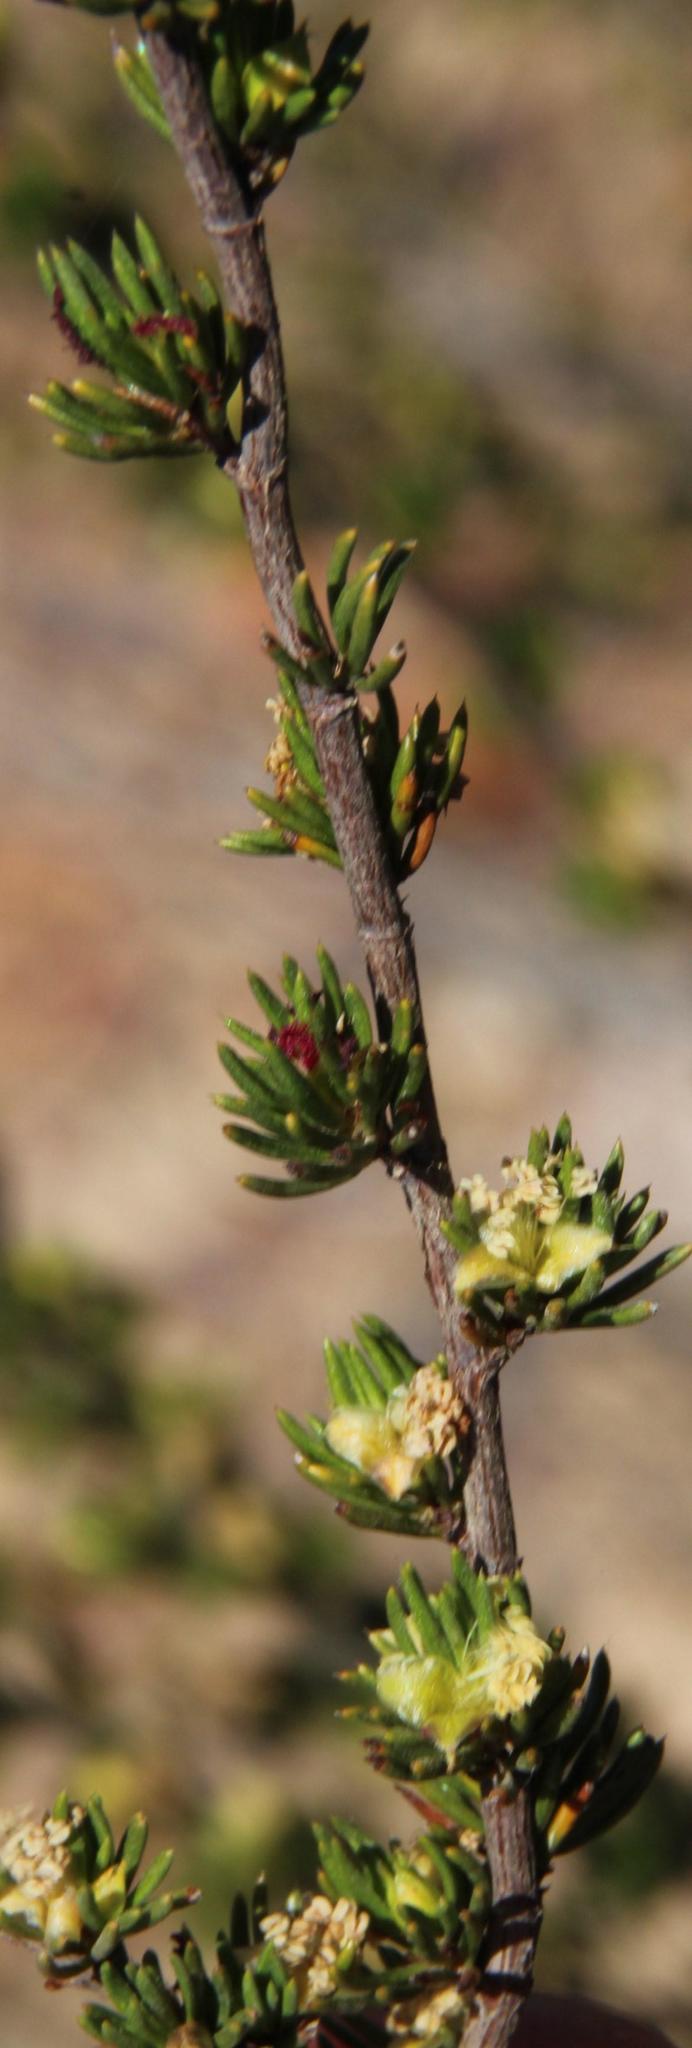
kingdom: Plantae
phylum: Tracheophyta
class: Magnoliopsida
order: Rosales
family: Rosaceae
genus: Cliffortia
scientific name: Cliffortia teretifolia
